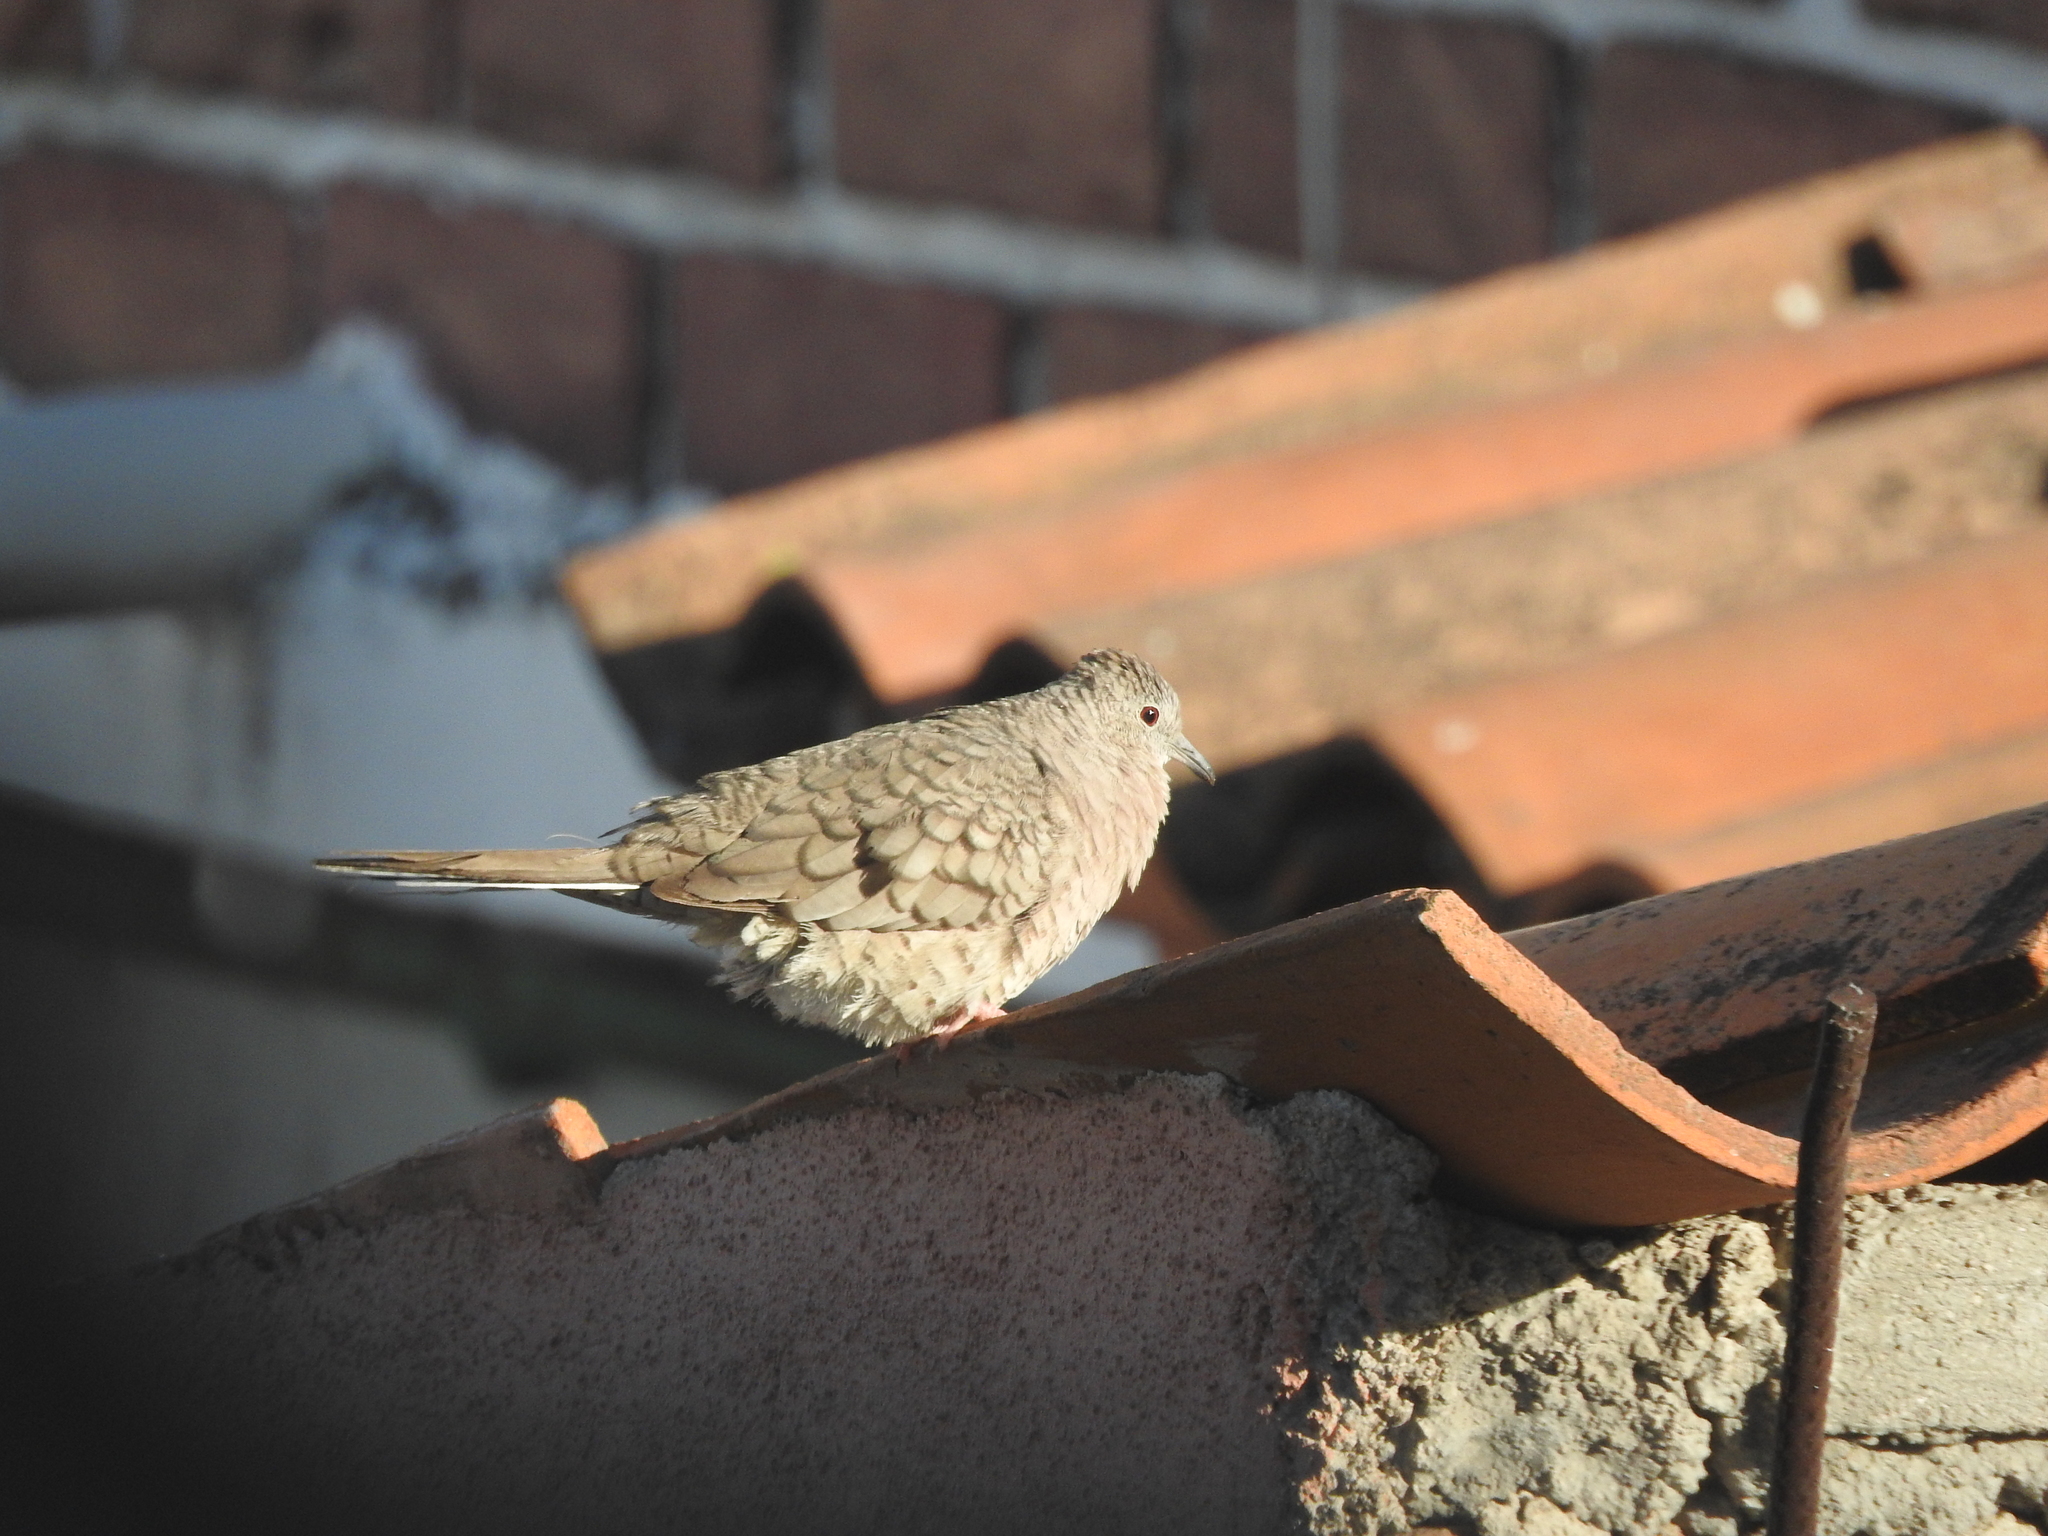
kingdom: Animalia
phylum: Chordata
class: Aves
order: Columbiformes
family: Columbidae
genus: Columbina
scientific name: Columbina inca
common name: Inca dove
